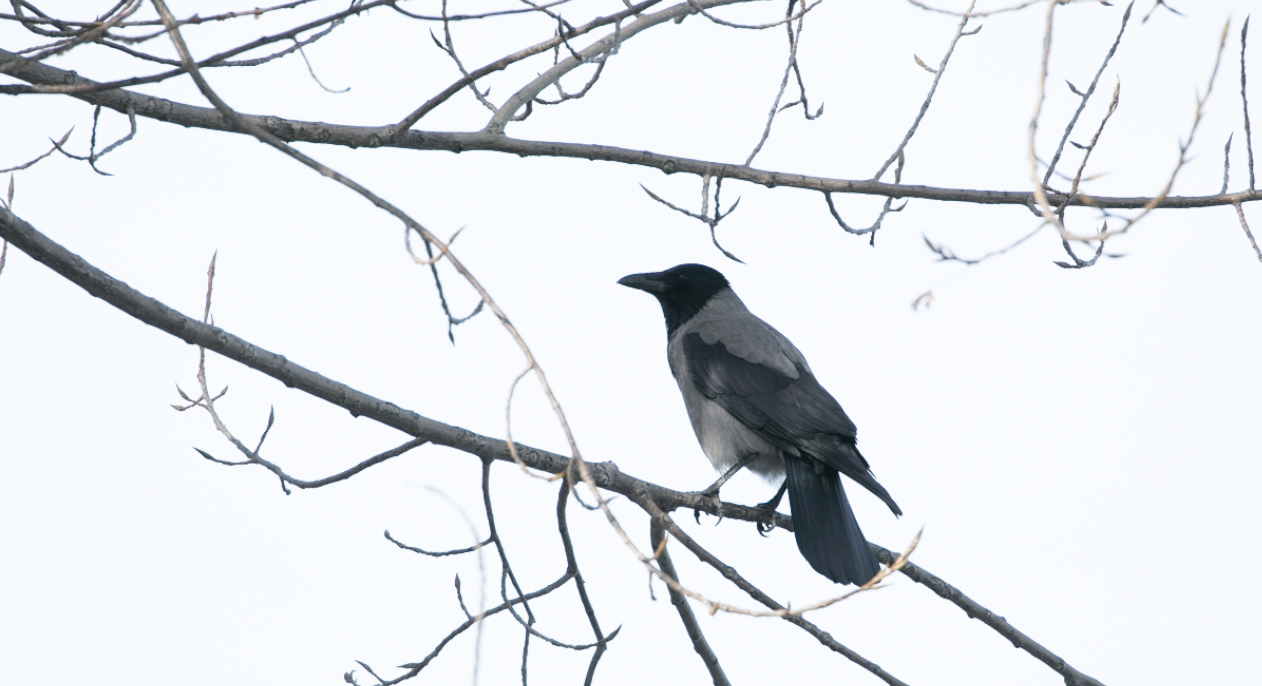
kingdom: Animalia
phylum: Chordata
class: Aves
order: Passeriformes
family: Corvidae
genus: Corvus
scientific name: Corvus cornix
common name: Hooded crow
